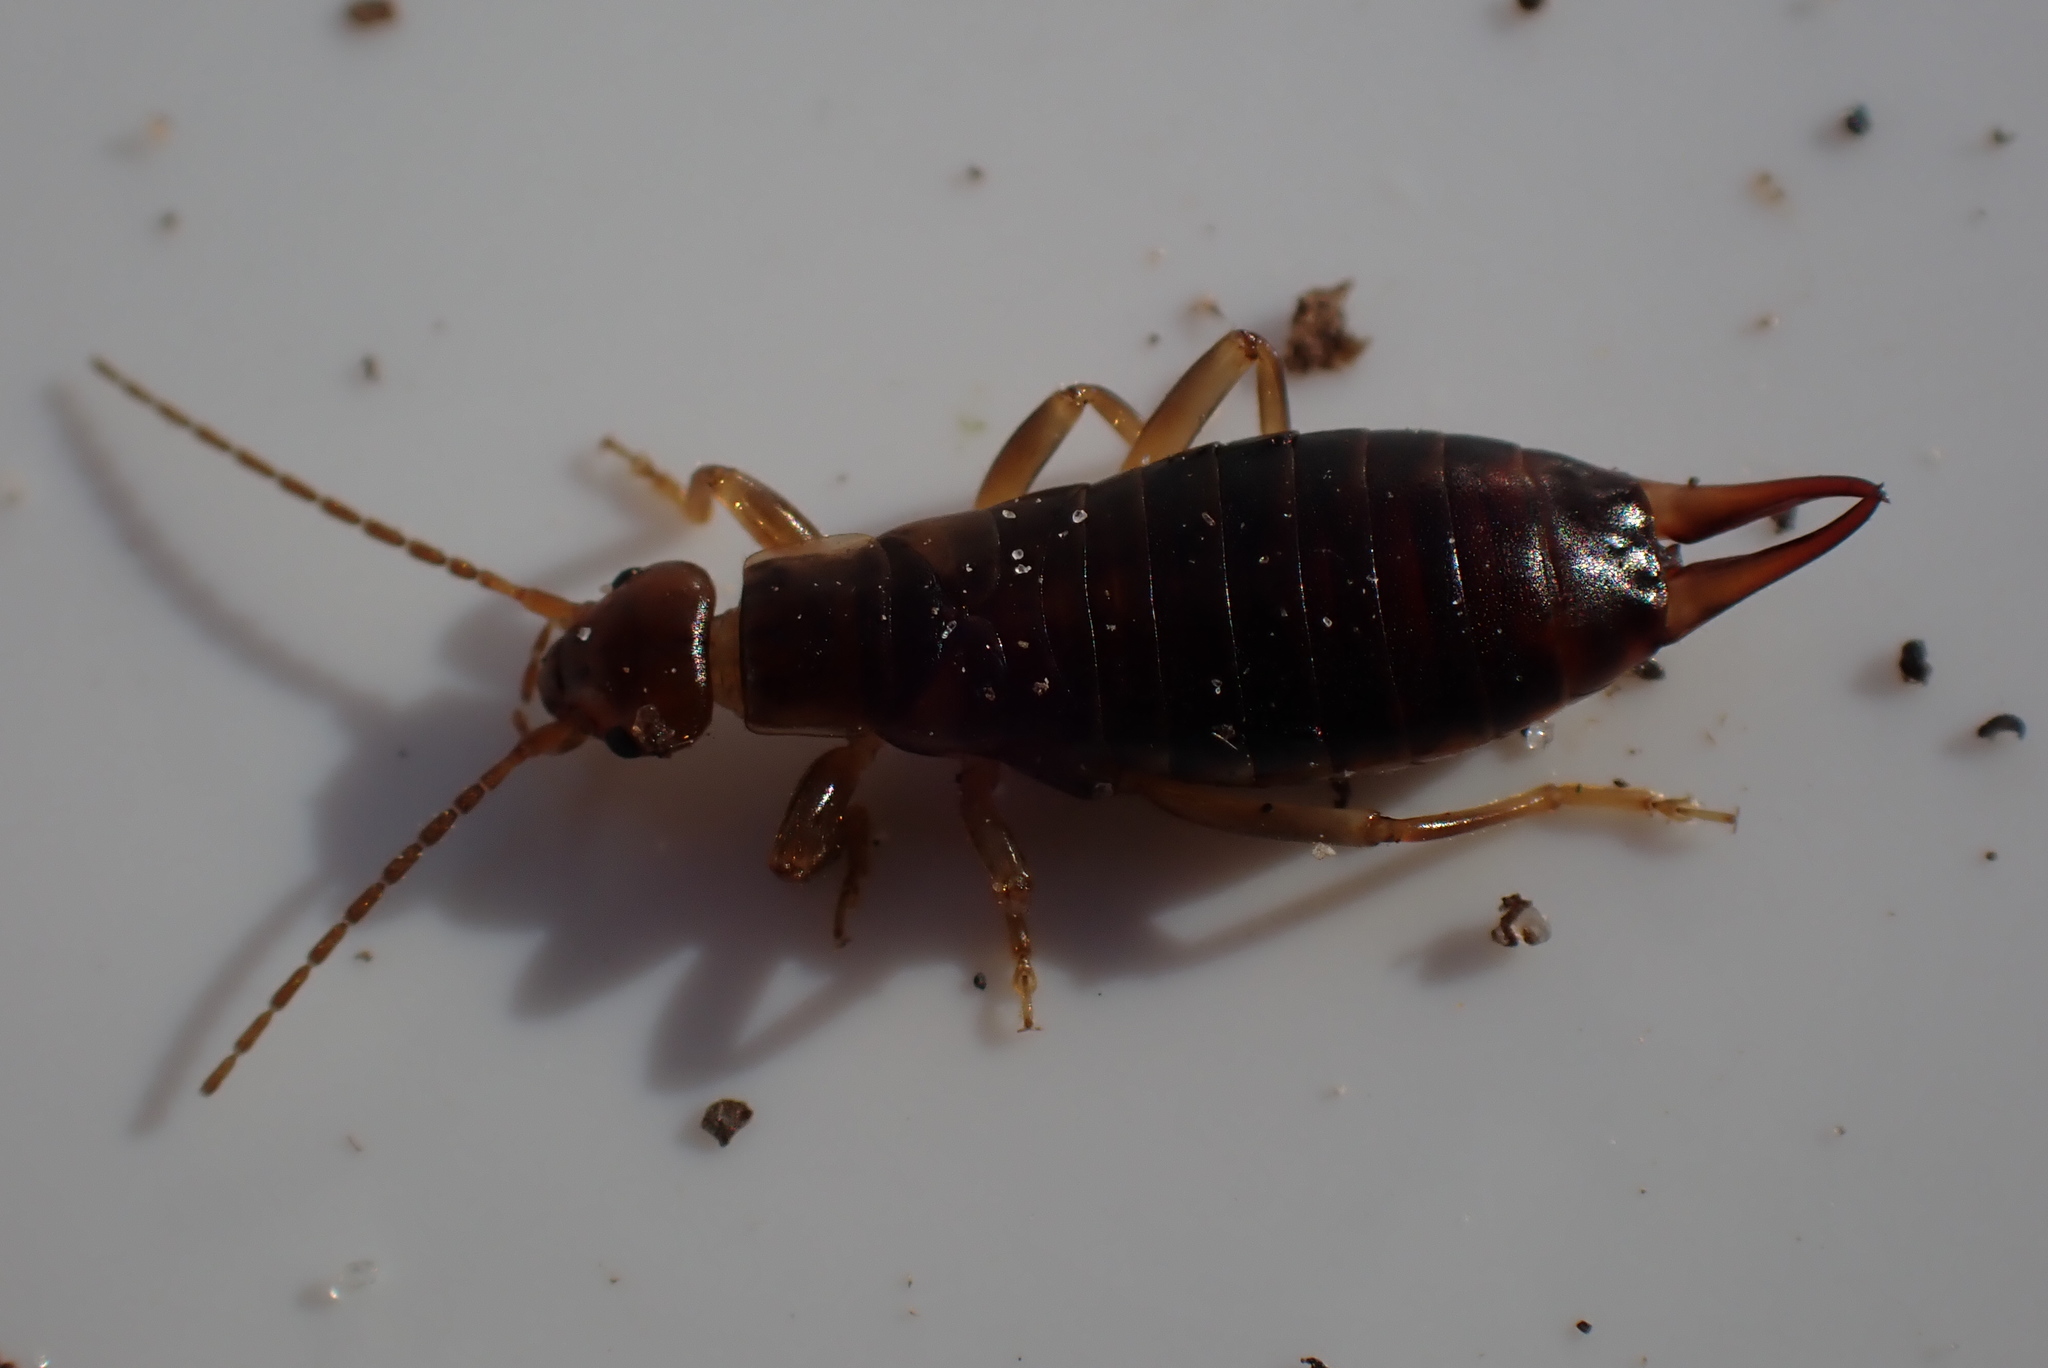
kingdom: Animalia
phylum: Arthropoda
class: Insecta
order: Dermaptera
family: Forficulidae
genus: Chelidurella
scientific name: Chelidurella acanthopygia
